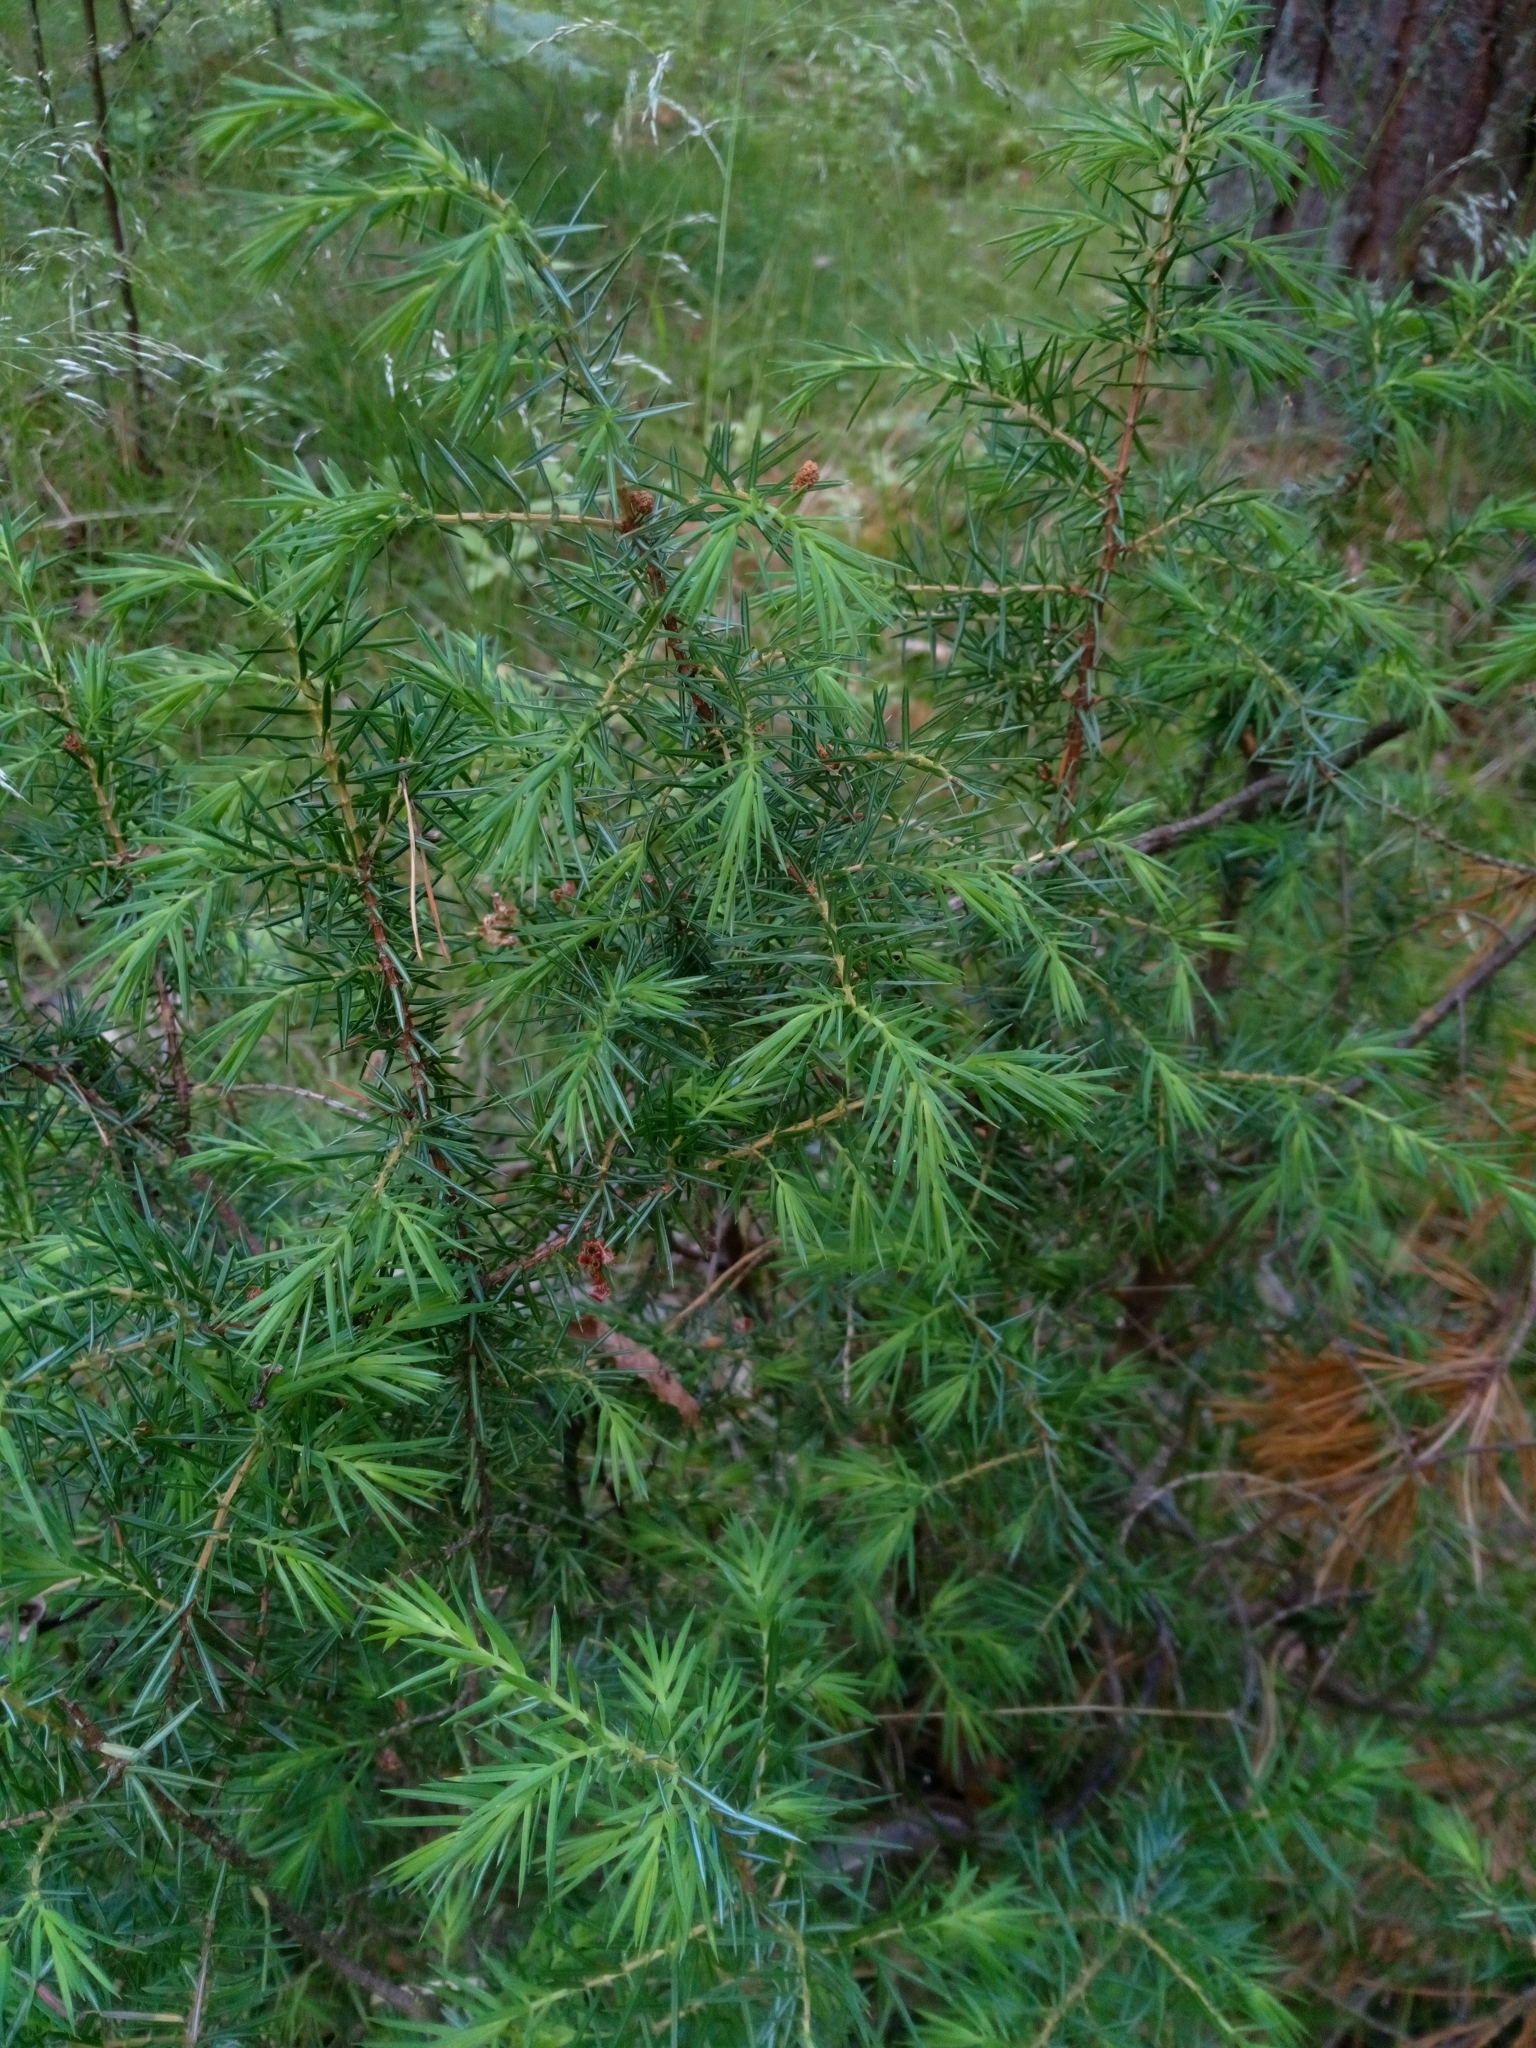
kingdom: Plantae
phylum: Tracheophyta
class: Pinopsida
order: Pinales
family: Cupressaceae
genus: Juniperus
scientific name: Juniperus communis
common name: Common juniper
